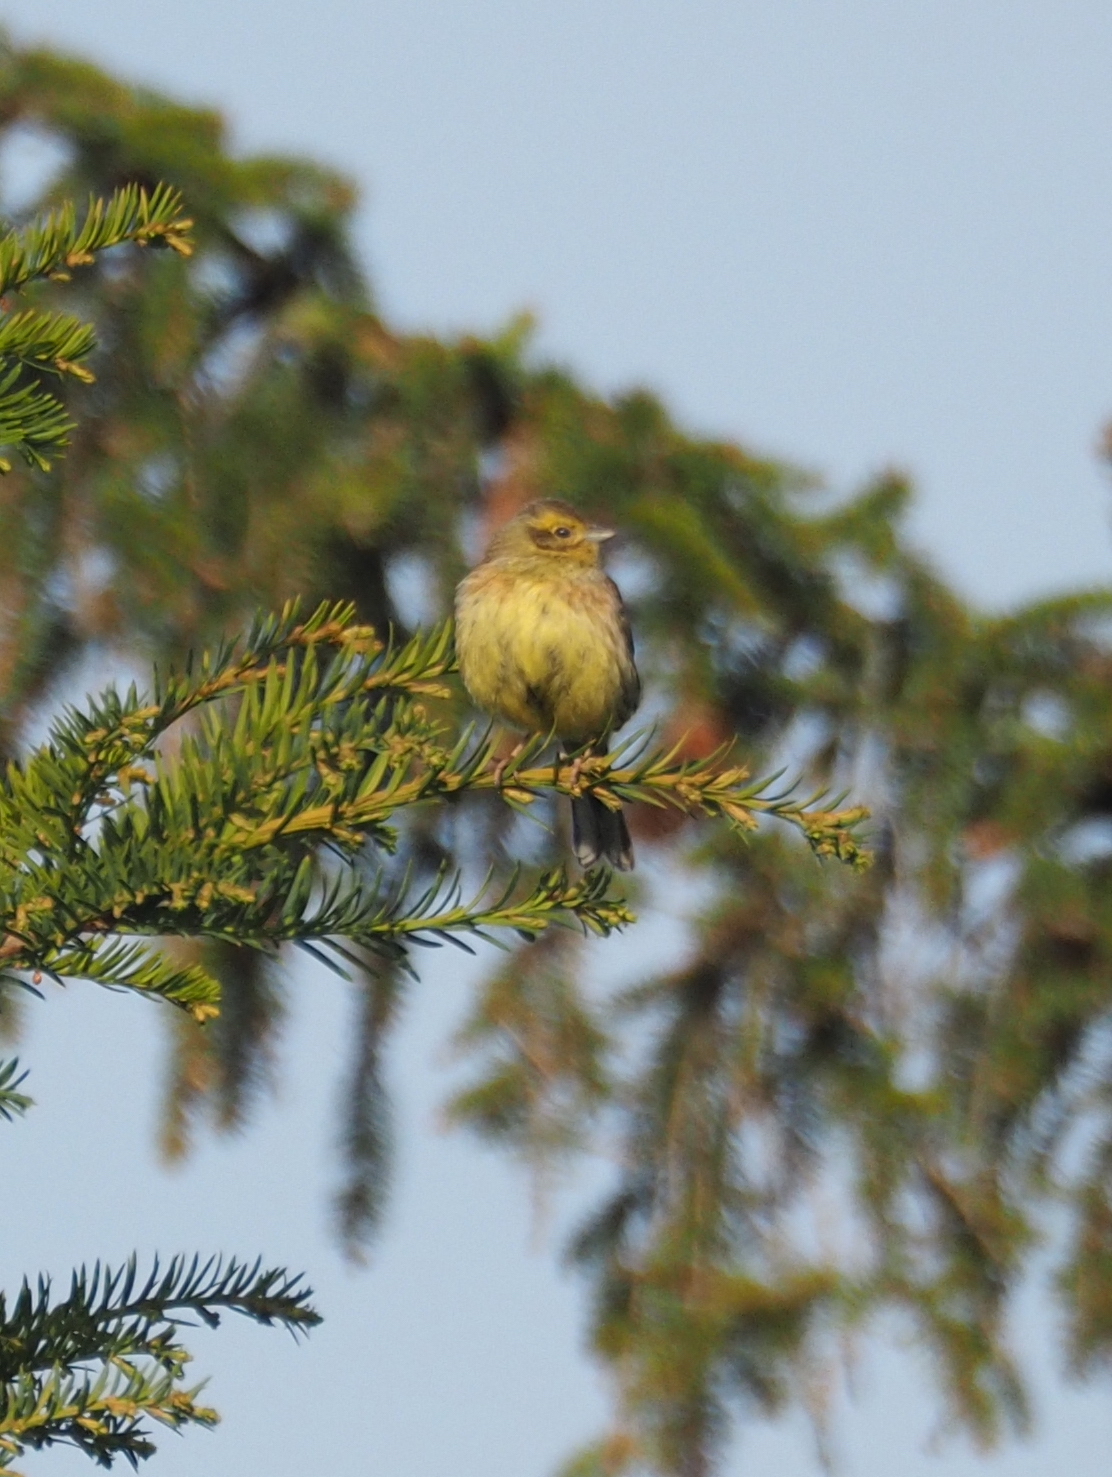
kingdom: Animalia
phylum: Chordata
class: Aves
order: Passeriformes
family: Emberizidae
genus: Emberiza
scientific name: Emberiza cirlus
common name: Cirl bunting
